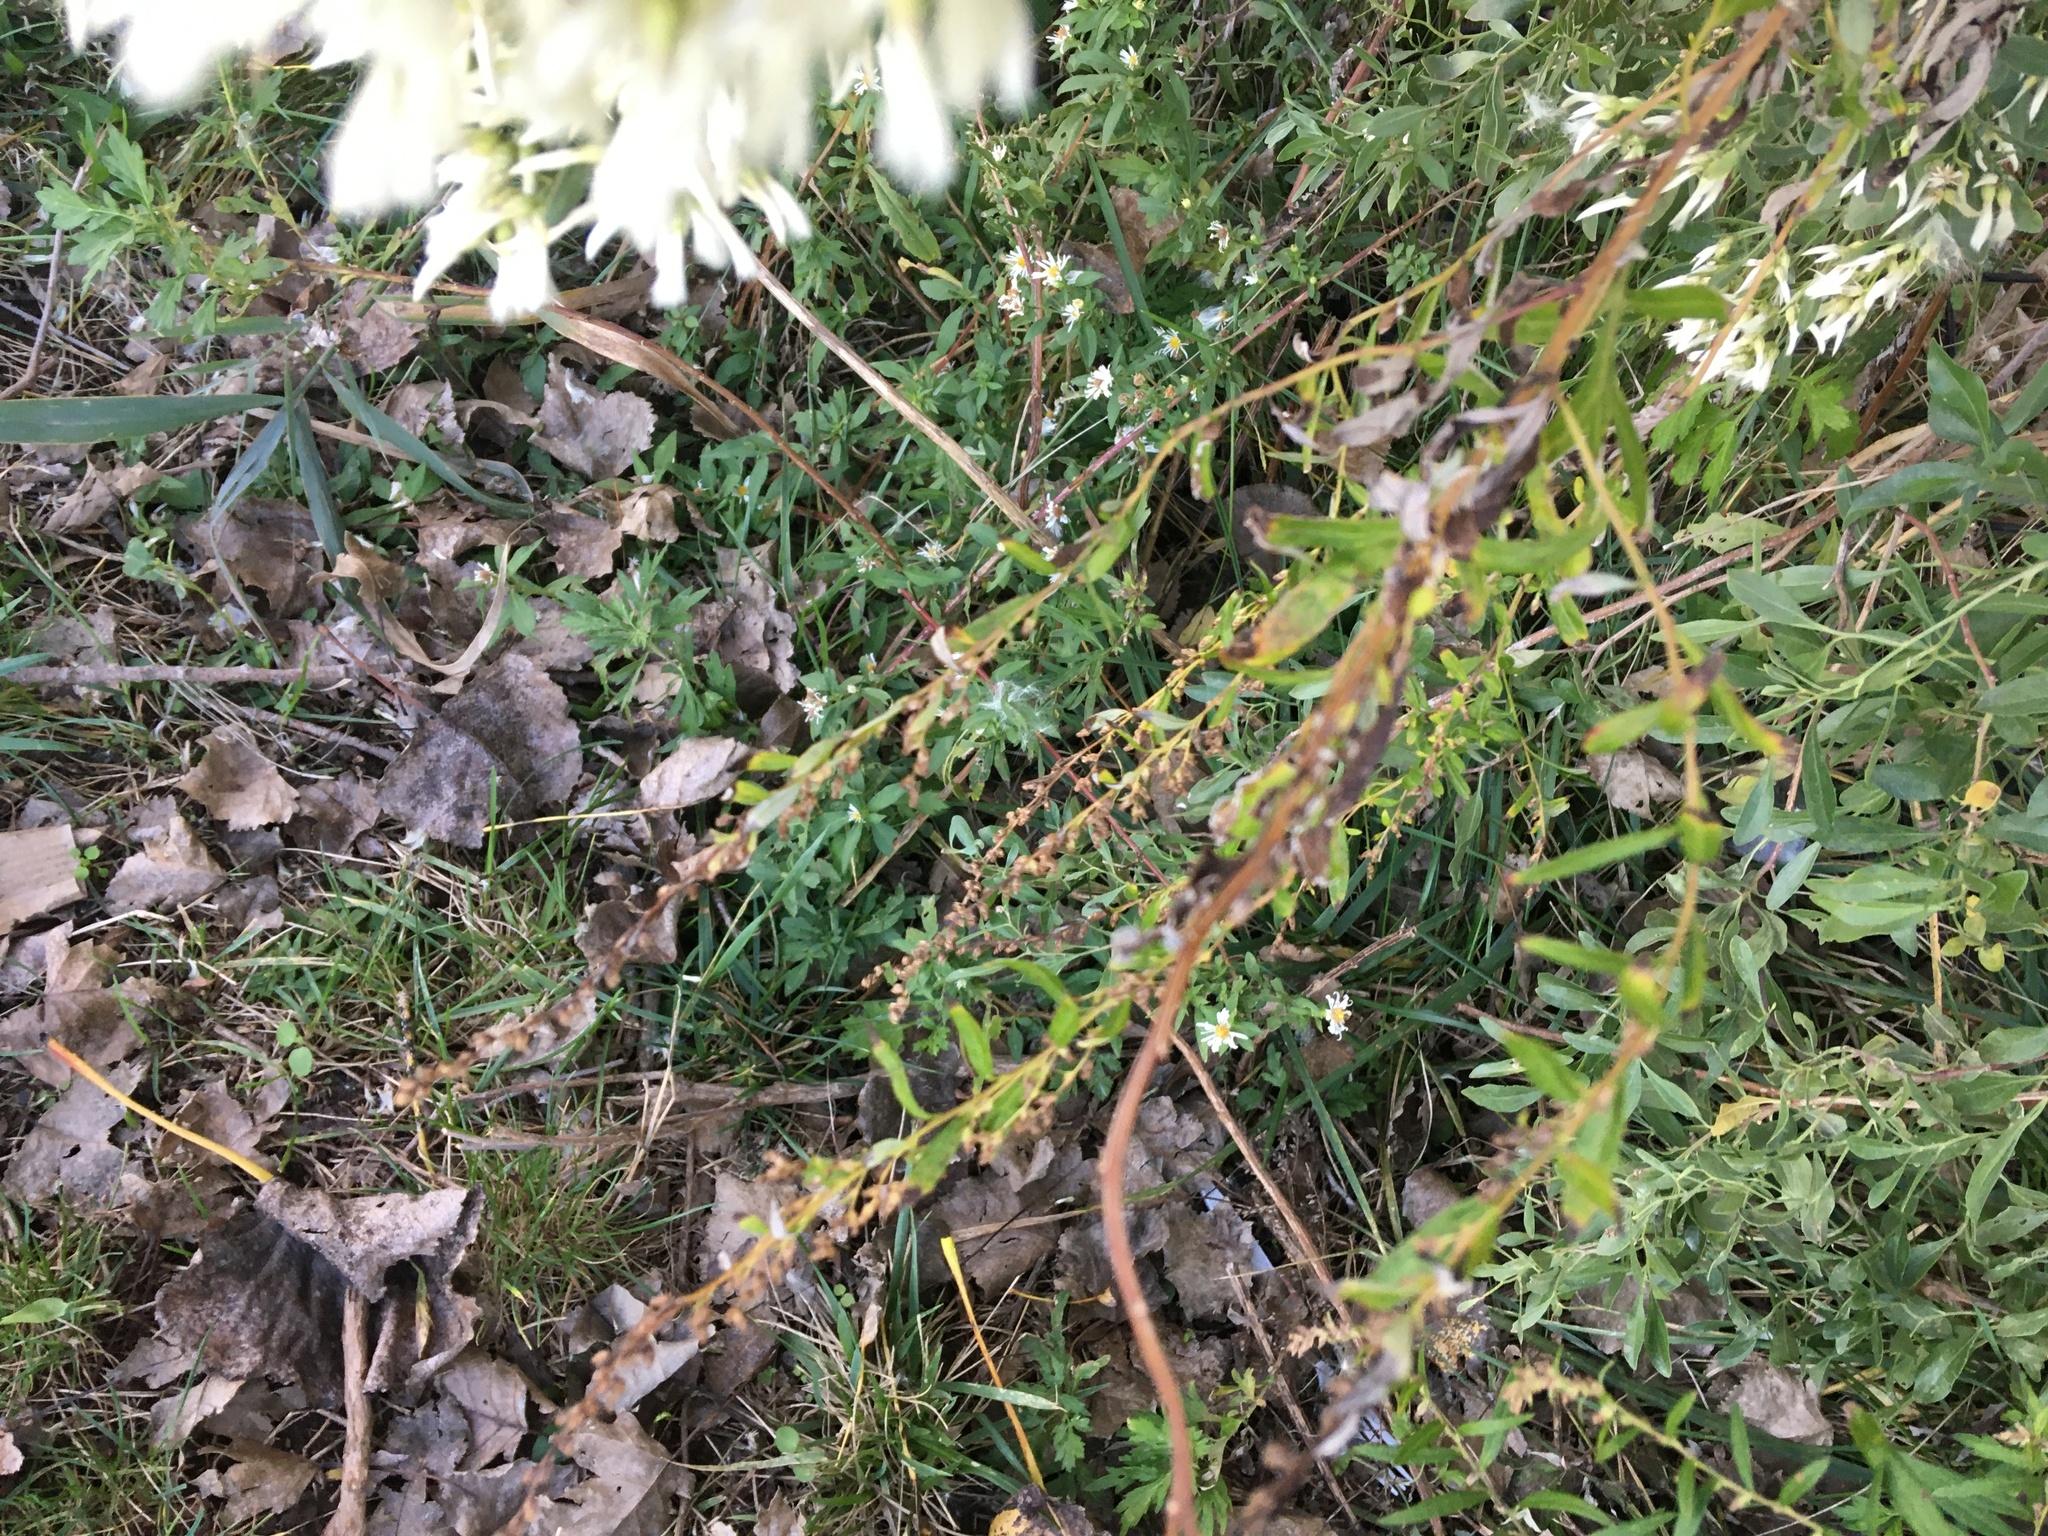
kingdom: Plantae
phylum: Tracheophyta
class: Magnoliopsida
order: Asterales
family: Asteraceae
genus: Artemisia
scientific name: Artemisia vulgaris
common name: Mugwort
